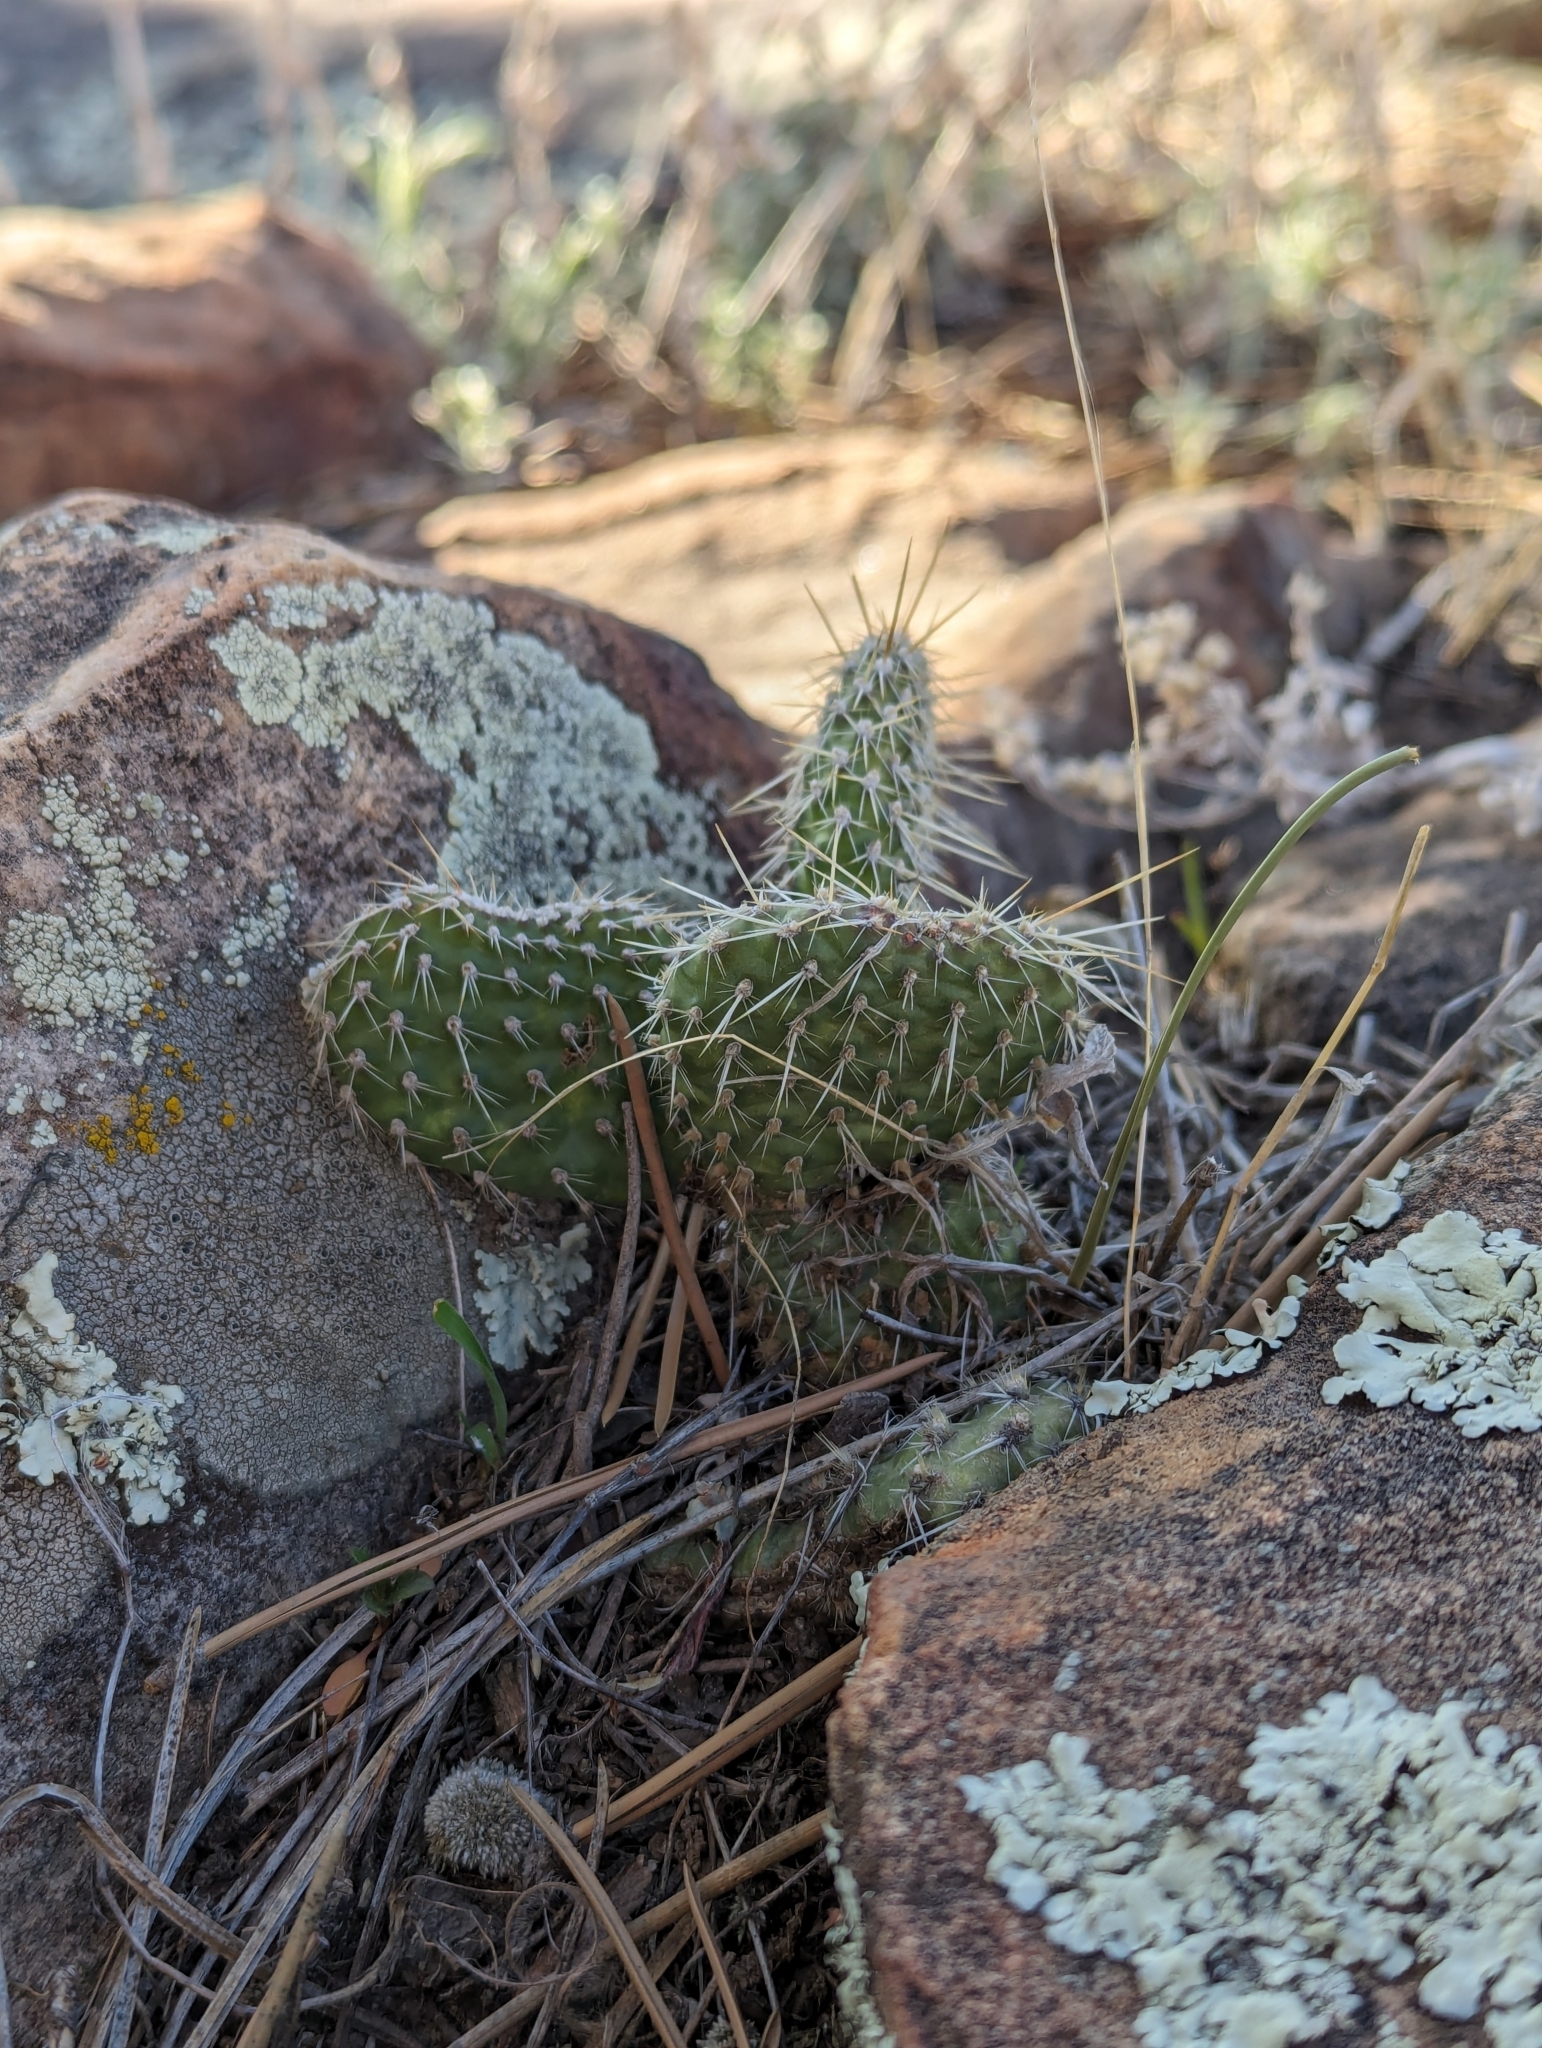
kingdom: Plantae
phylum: Tracheophyta
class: Magnoliopsida
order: Caryophyllales
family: Cactaceae
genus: Opuntia
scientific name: Opuntia polyacantha
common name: Plains prickly-pear
